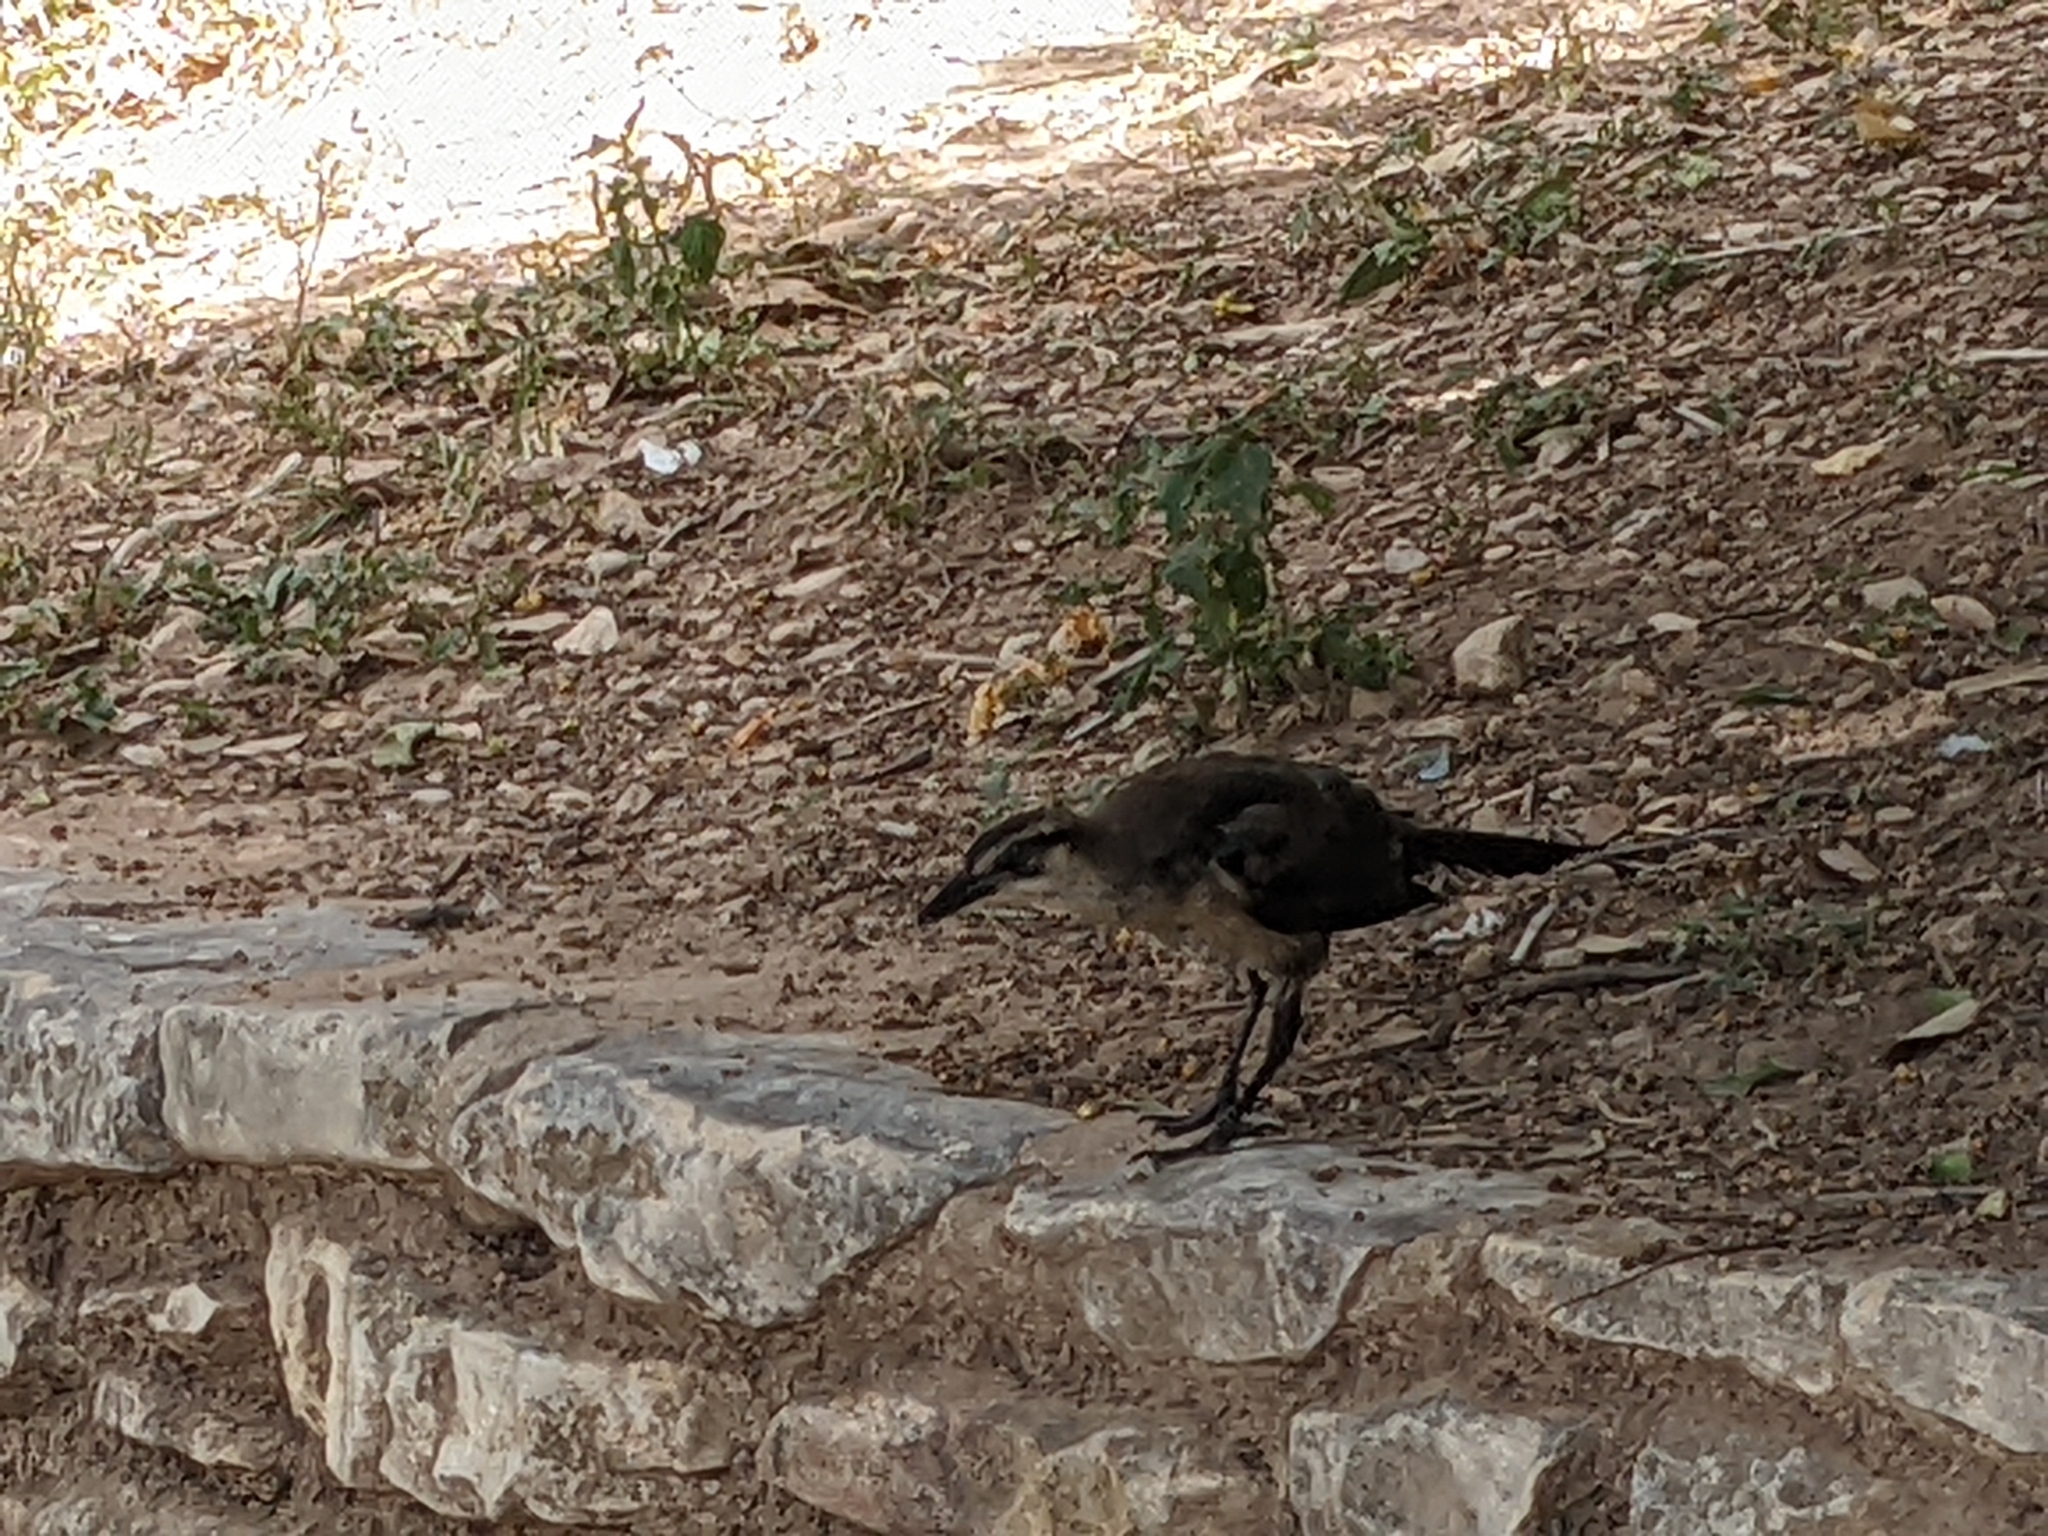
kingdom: Animalia
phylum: Chordata
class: Aves
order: Passeriformes
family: Icteridae
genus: Quiscalus
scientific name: Quiscalus mexicanus
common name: Great-tailed grackle
